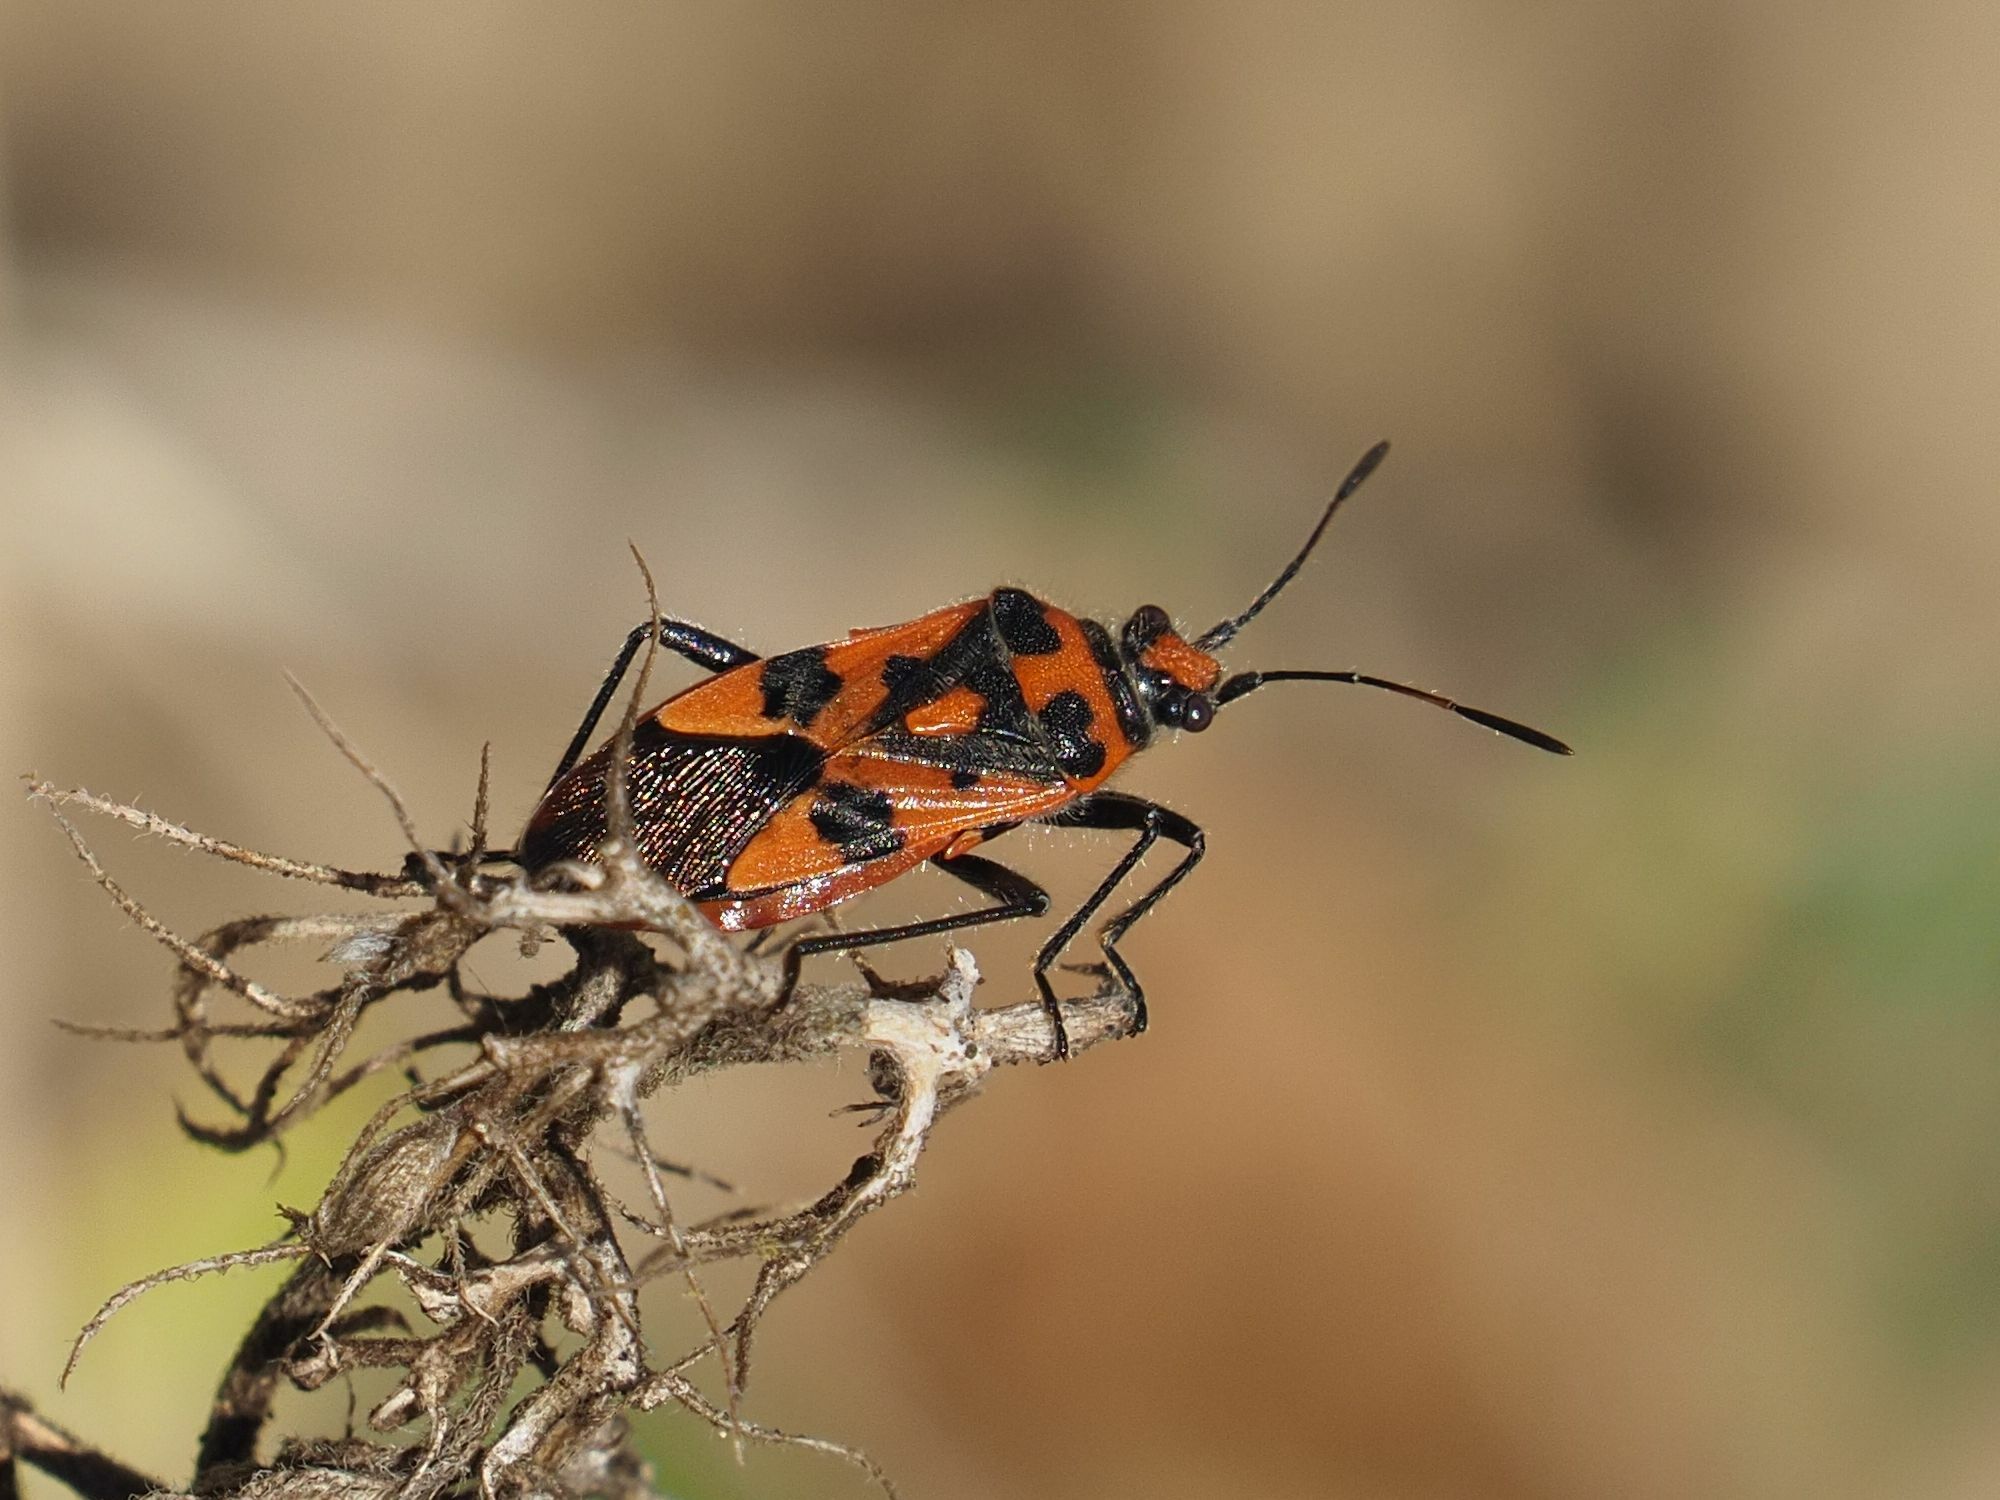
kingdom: Animalia
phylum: Arthropoda
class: Insecta
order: Hemiptera
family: Rhopalidae
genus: Corizus
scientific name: Corizus hyoscyami
